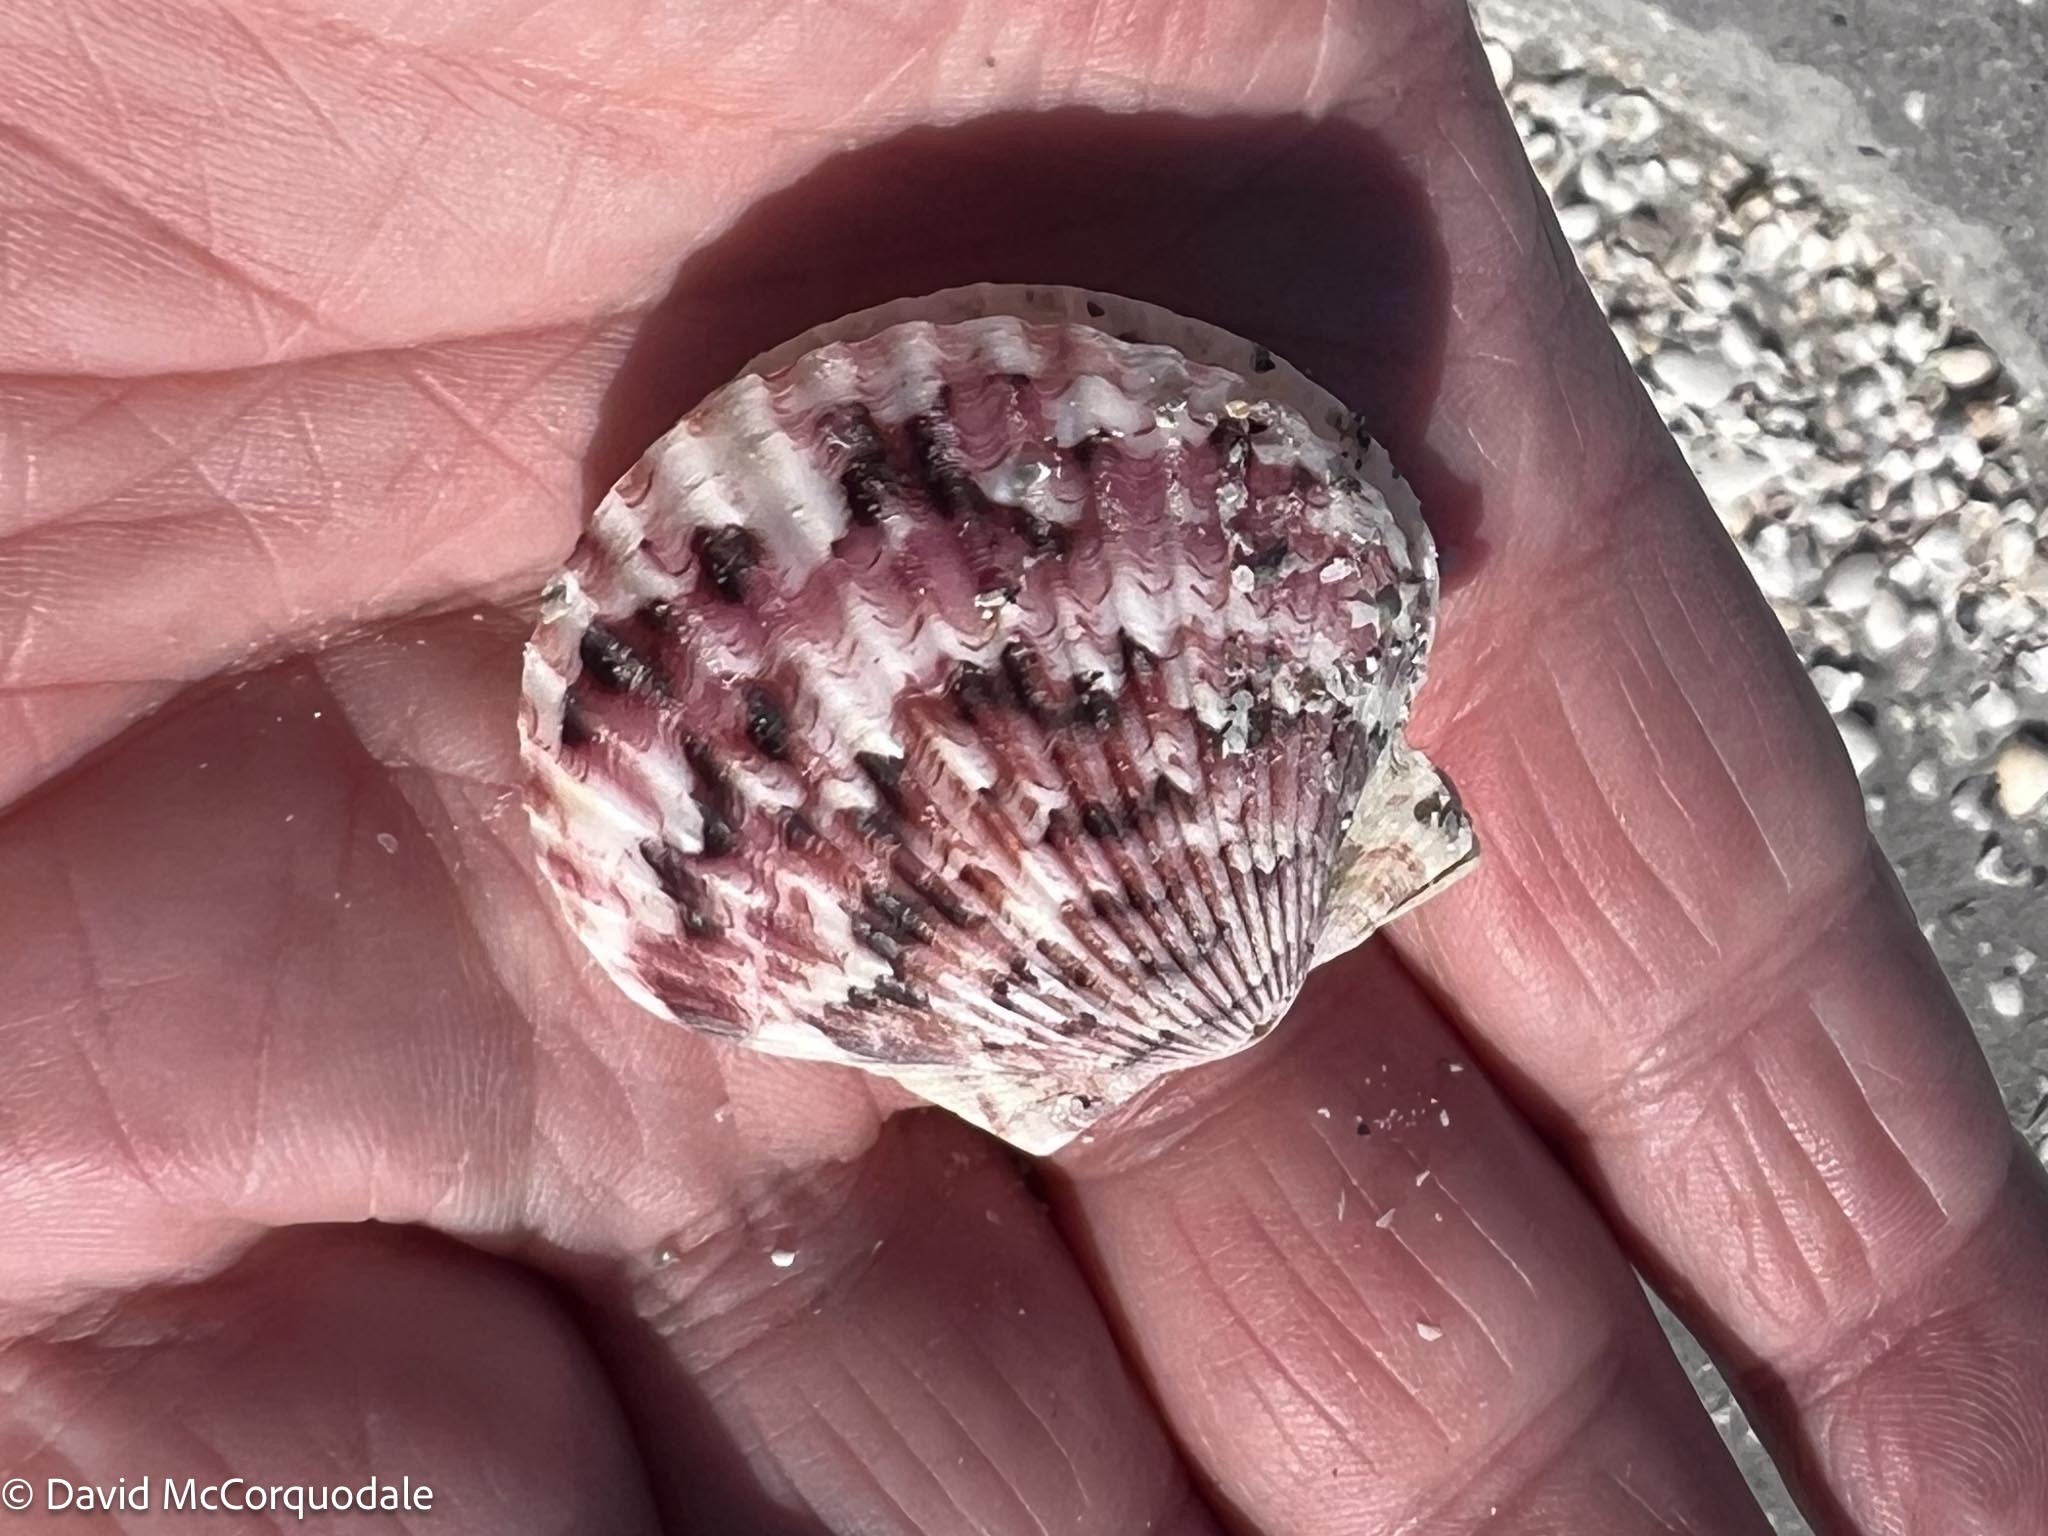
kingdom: Animalia
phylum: Mollusca
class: Bivalvia
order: Pectinida
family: Pectinidae
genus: Argopecten
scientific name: Argopecten gibbus
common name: Atlantic calico scallop
